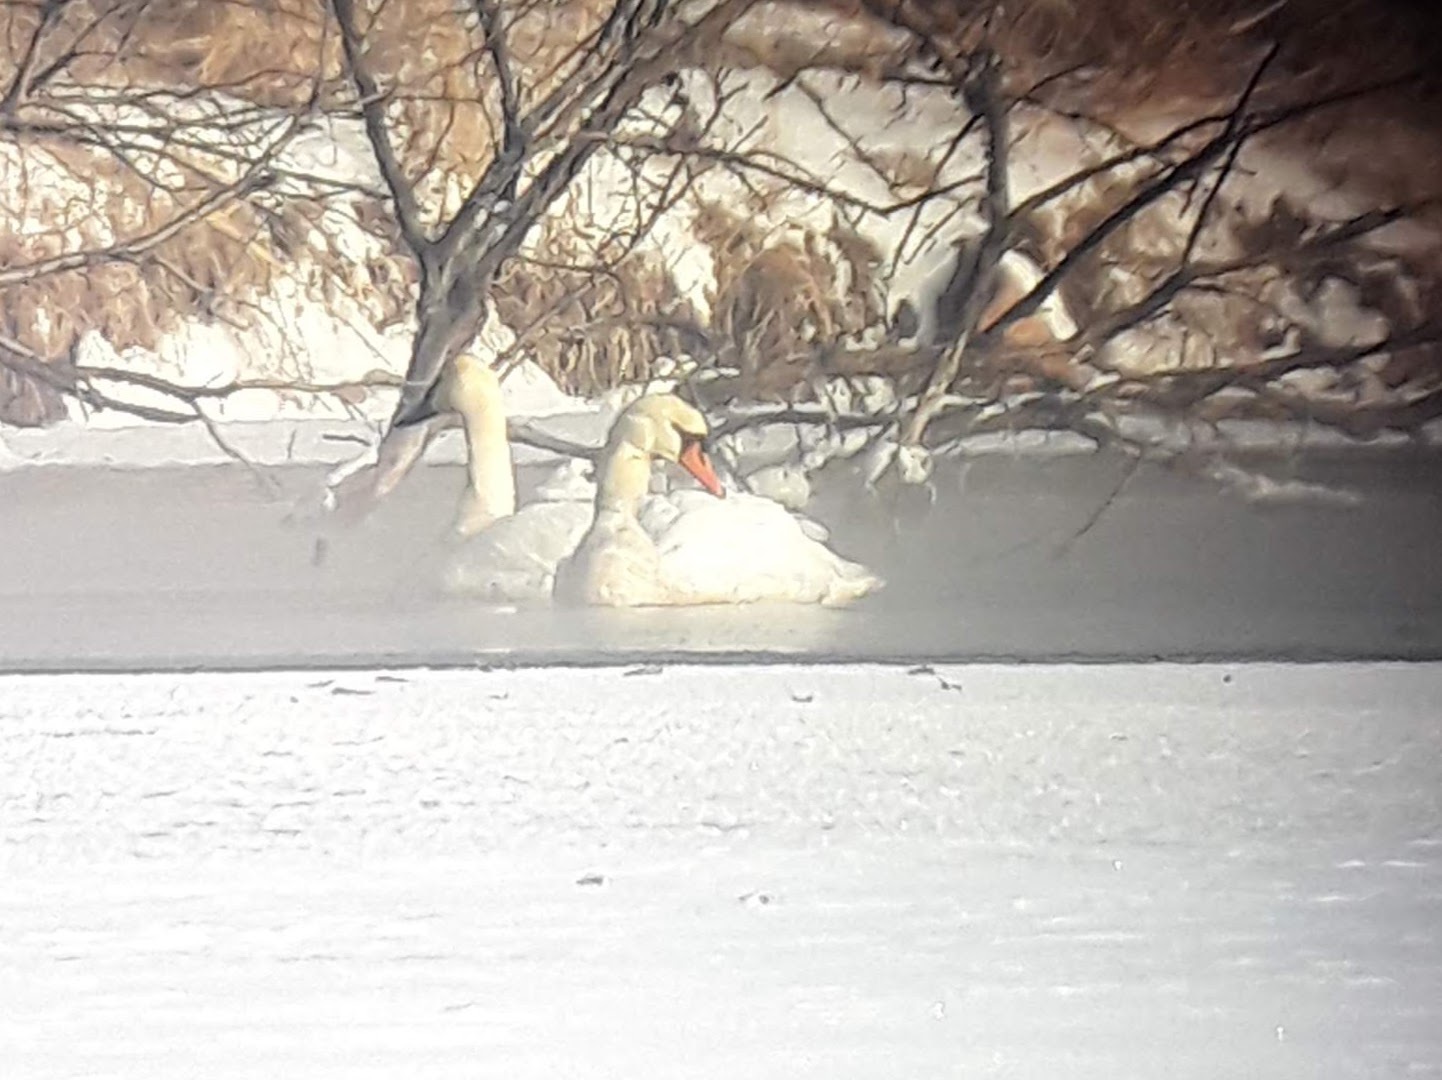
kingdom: Animalia
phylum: Chordata
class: Aves
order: Anseriformes
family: Anatidae
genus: Cygnus
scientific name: Cygnus olor
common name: Mute swan
